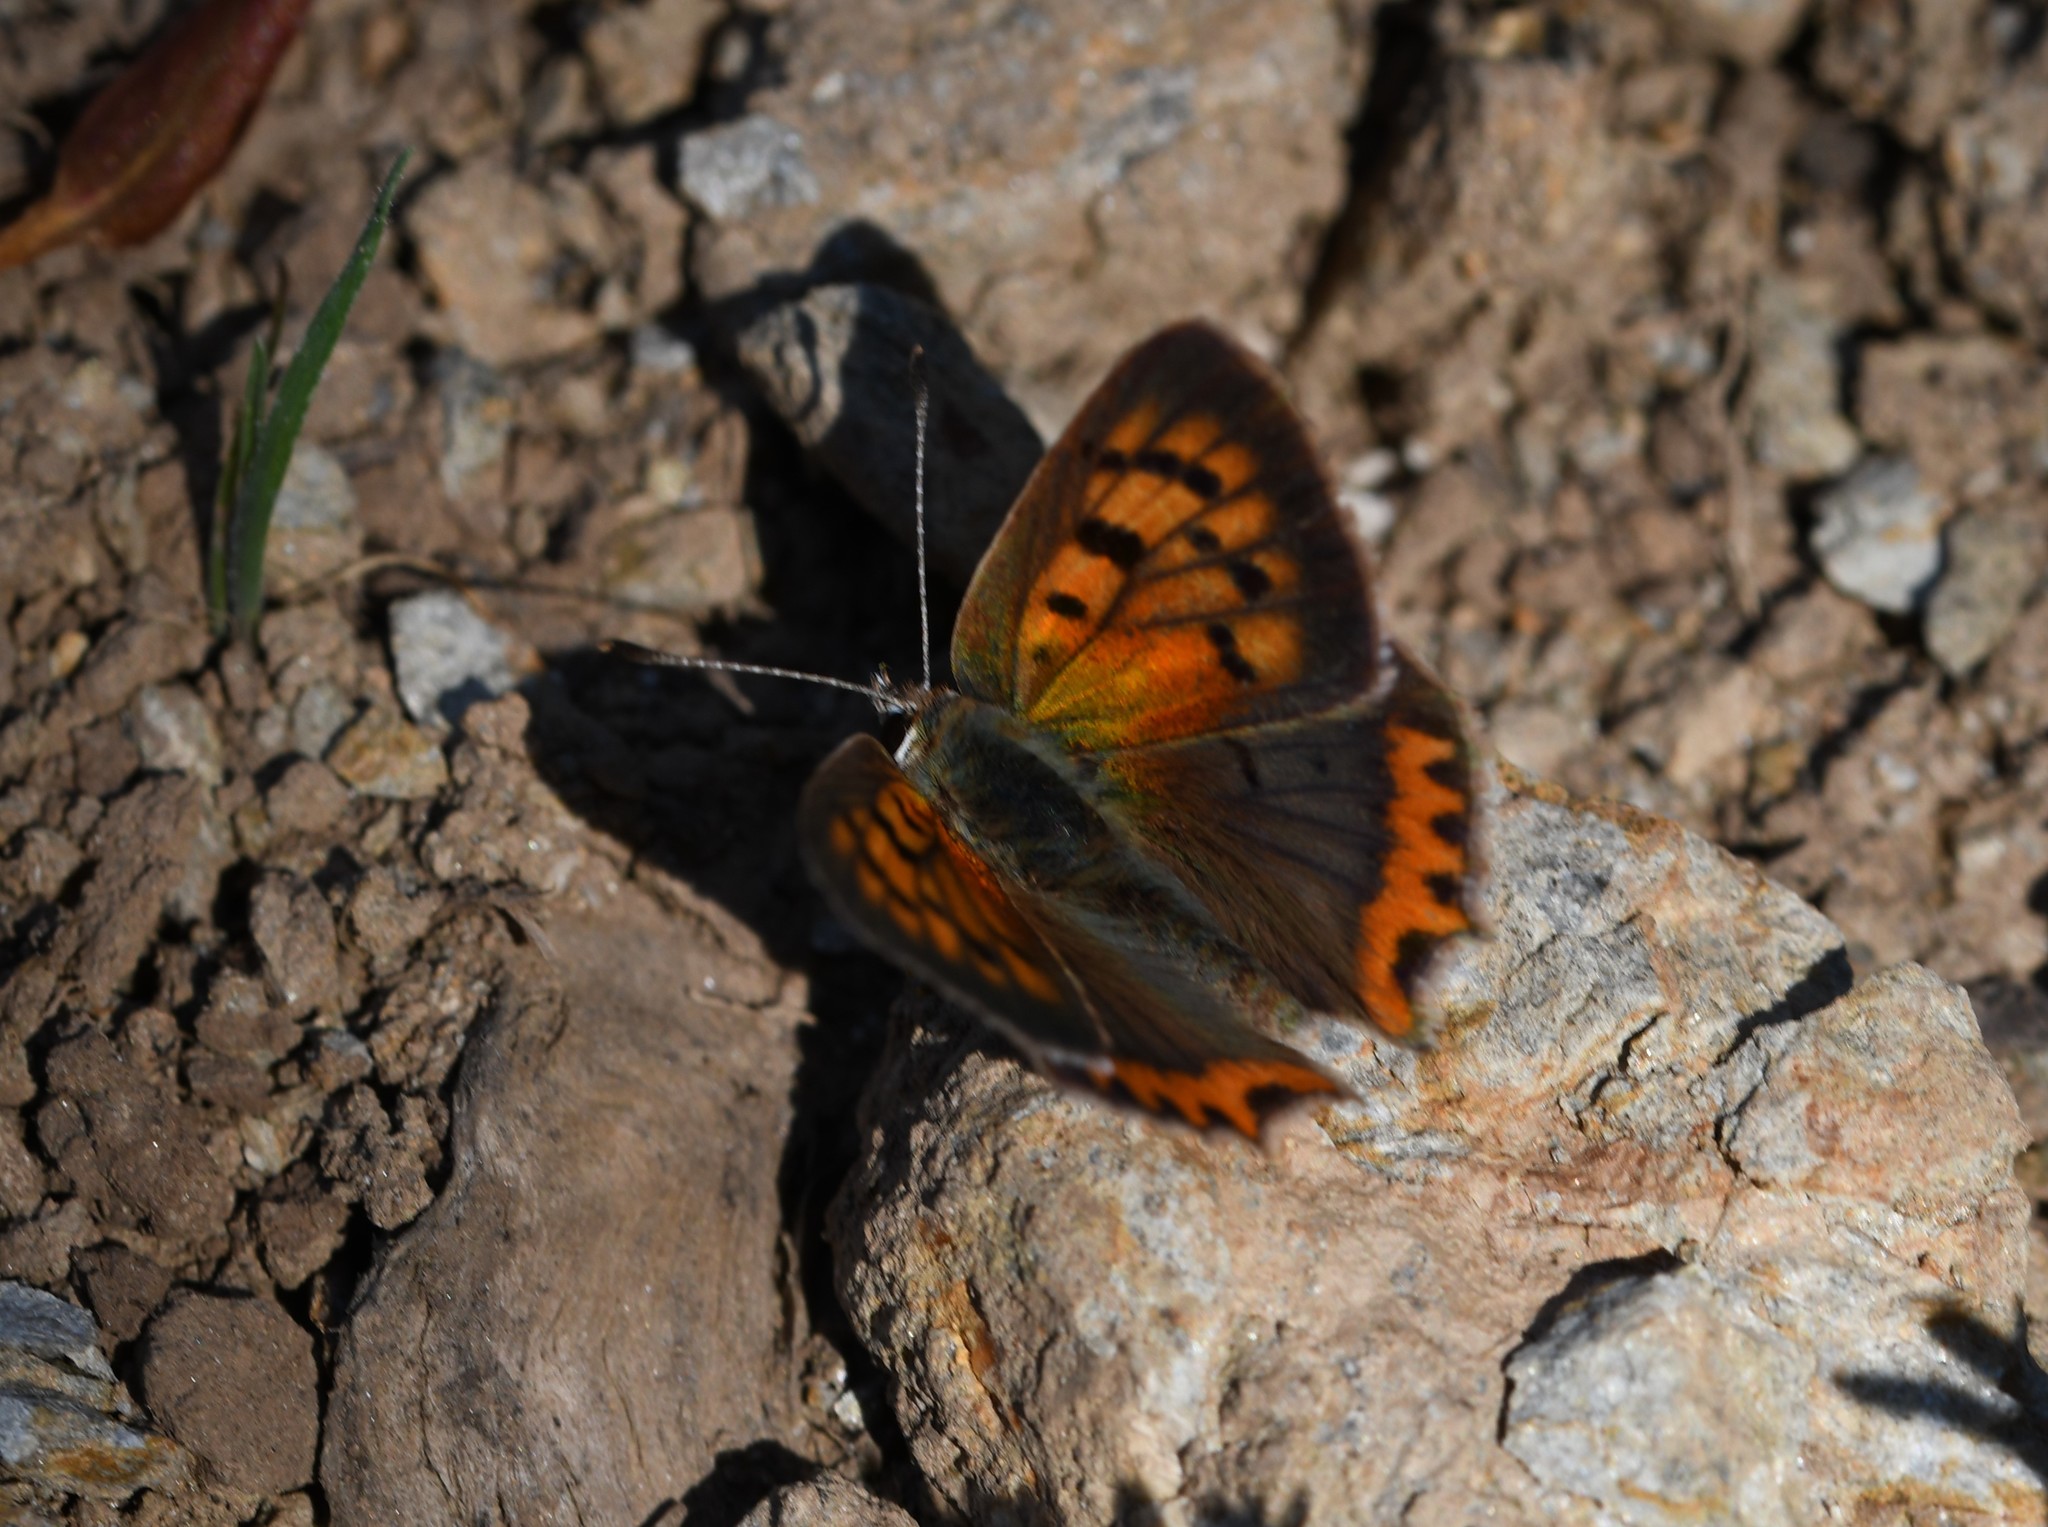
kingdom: Animalia
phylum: Arthropoda
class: Insecta
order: Lepidoptera
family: Lycaenidae
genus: Lycaena
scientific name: Lycaena phlaeas
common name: Small copper
